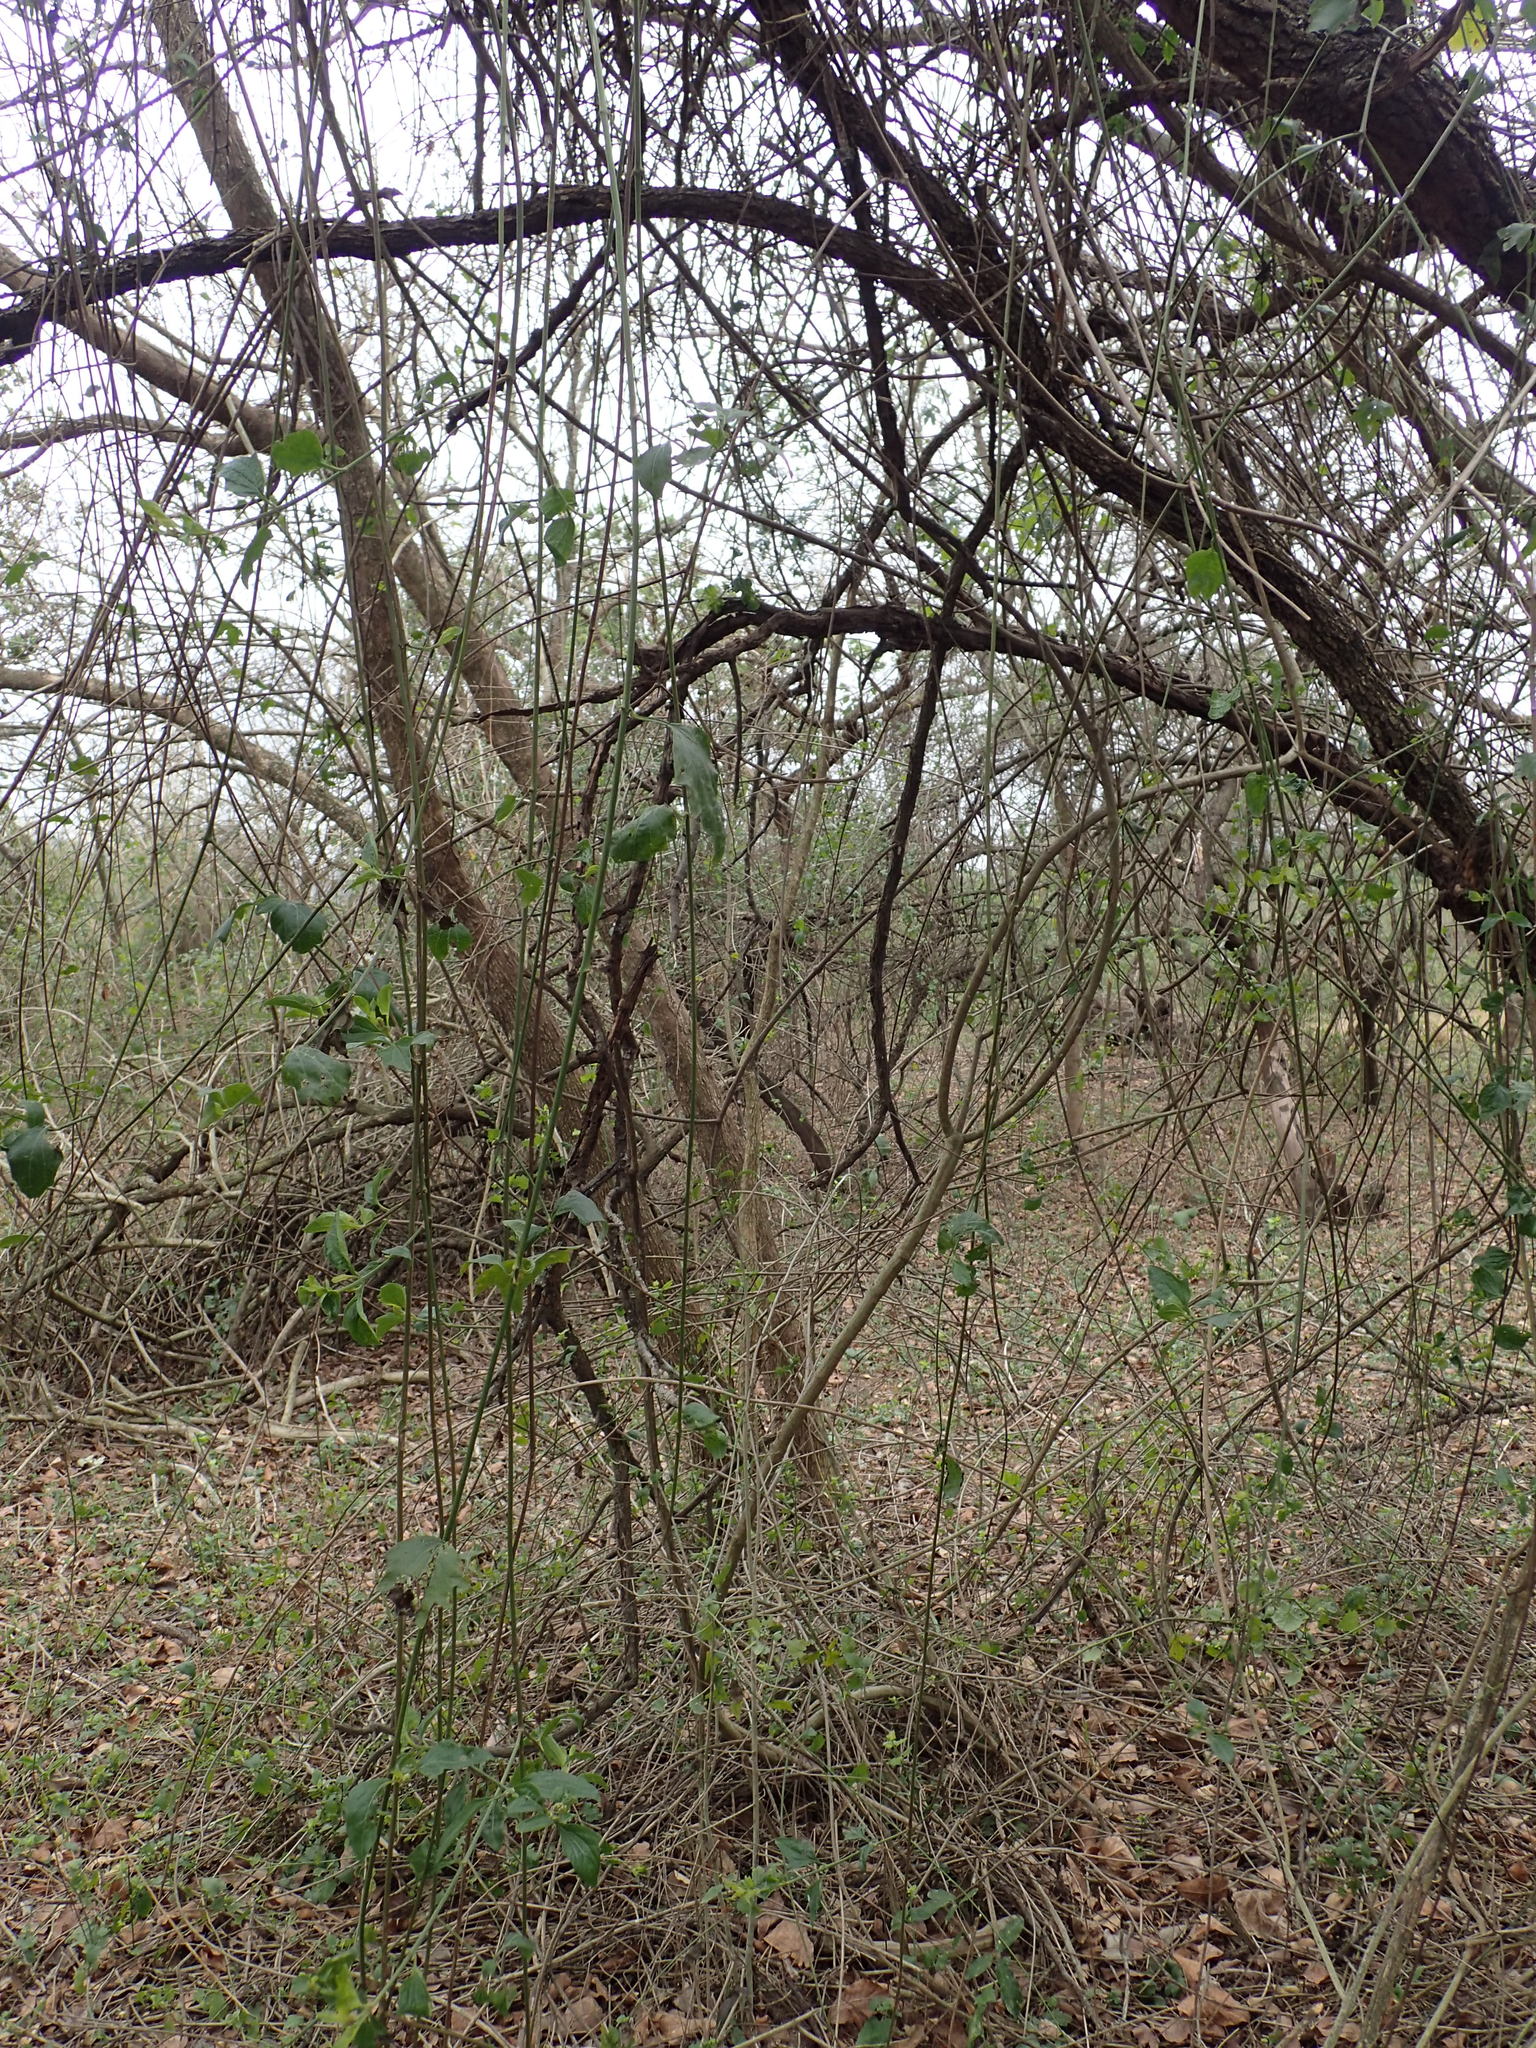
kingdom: Plantae
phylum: Tracheophyta
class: Magnoliopsida
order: Asterales
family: Asteraceae
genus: Distephanus
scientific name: Distephanus angulifolius
